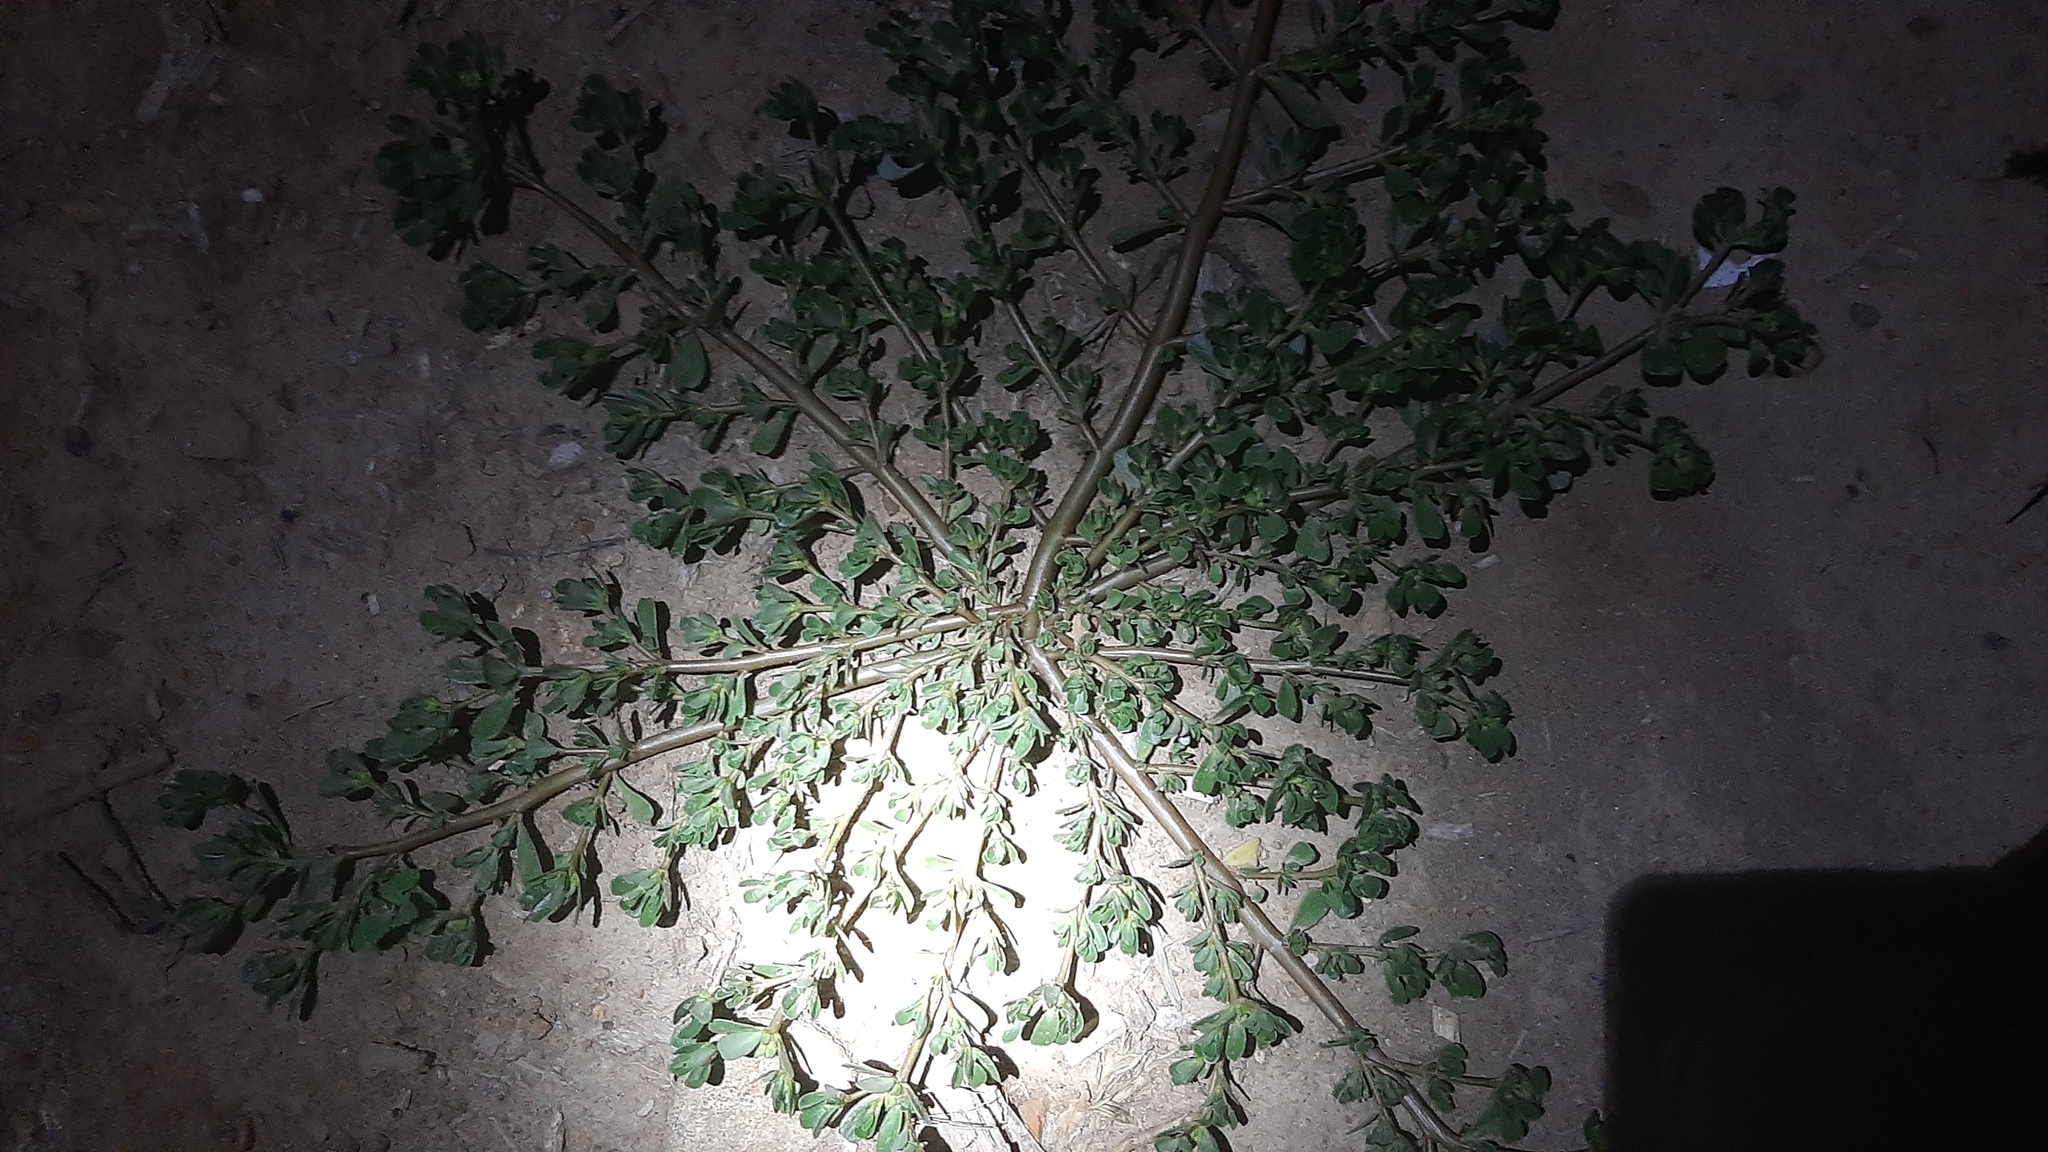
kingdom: Plantae
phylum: Tracheophyta
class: Magnoliopsida
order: Caryophyllales
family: Portulacaceae
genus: Portulaca
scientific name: Portulaca oleracea
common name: Common purslane
